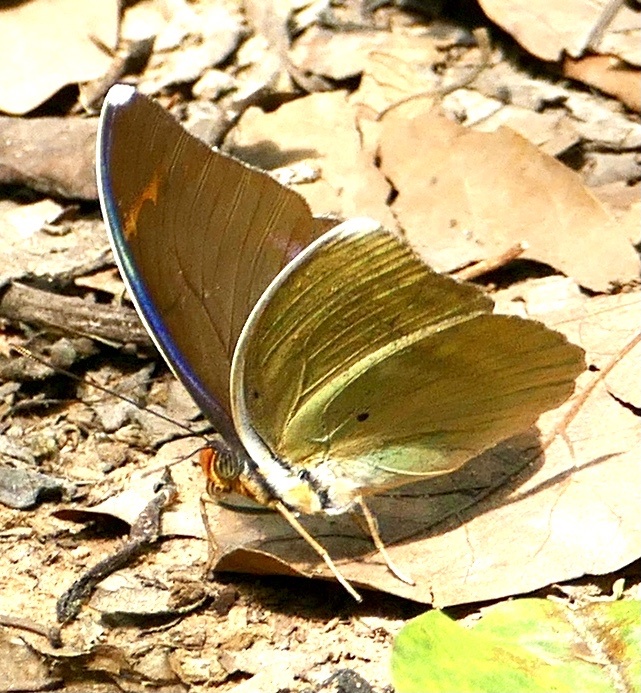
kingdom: Animalia
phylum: Arthropoda
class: Insecta
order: Lepidoptera
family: Nymphalidae
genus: Euphaedra
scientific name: Euphaedra harpalyce
